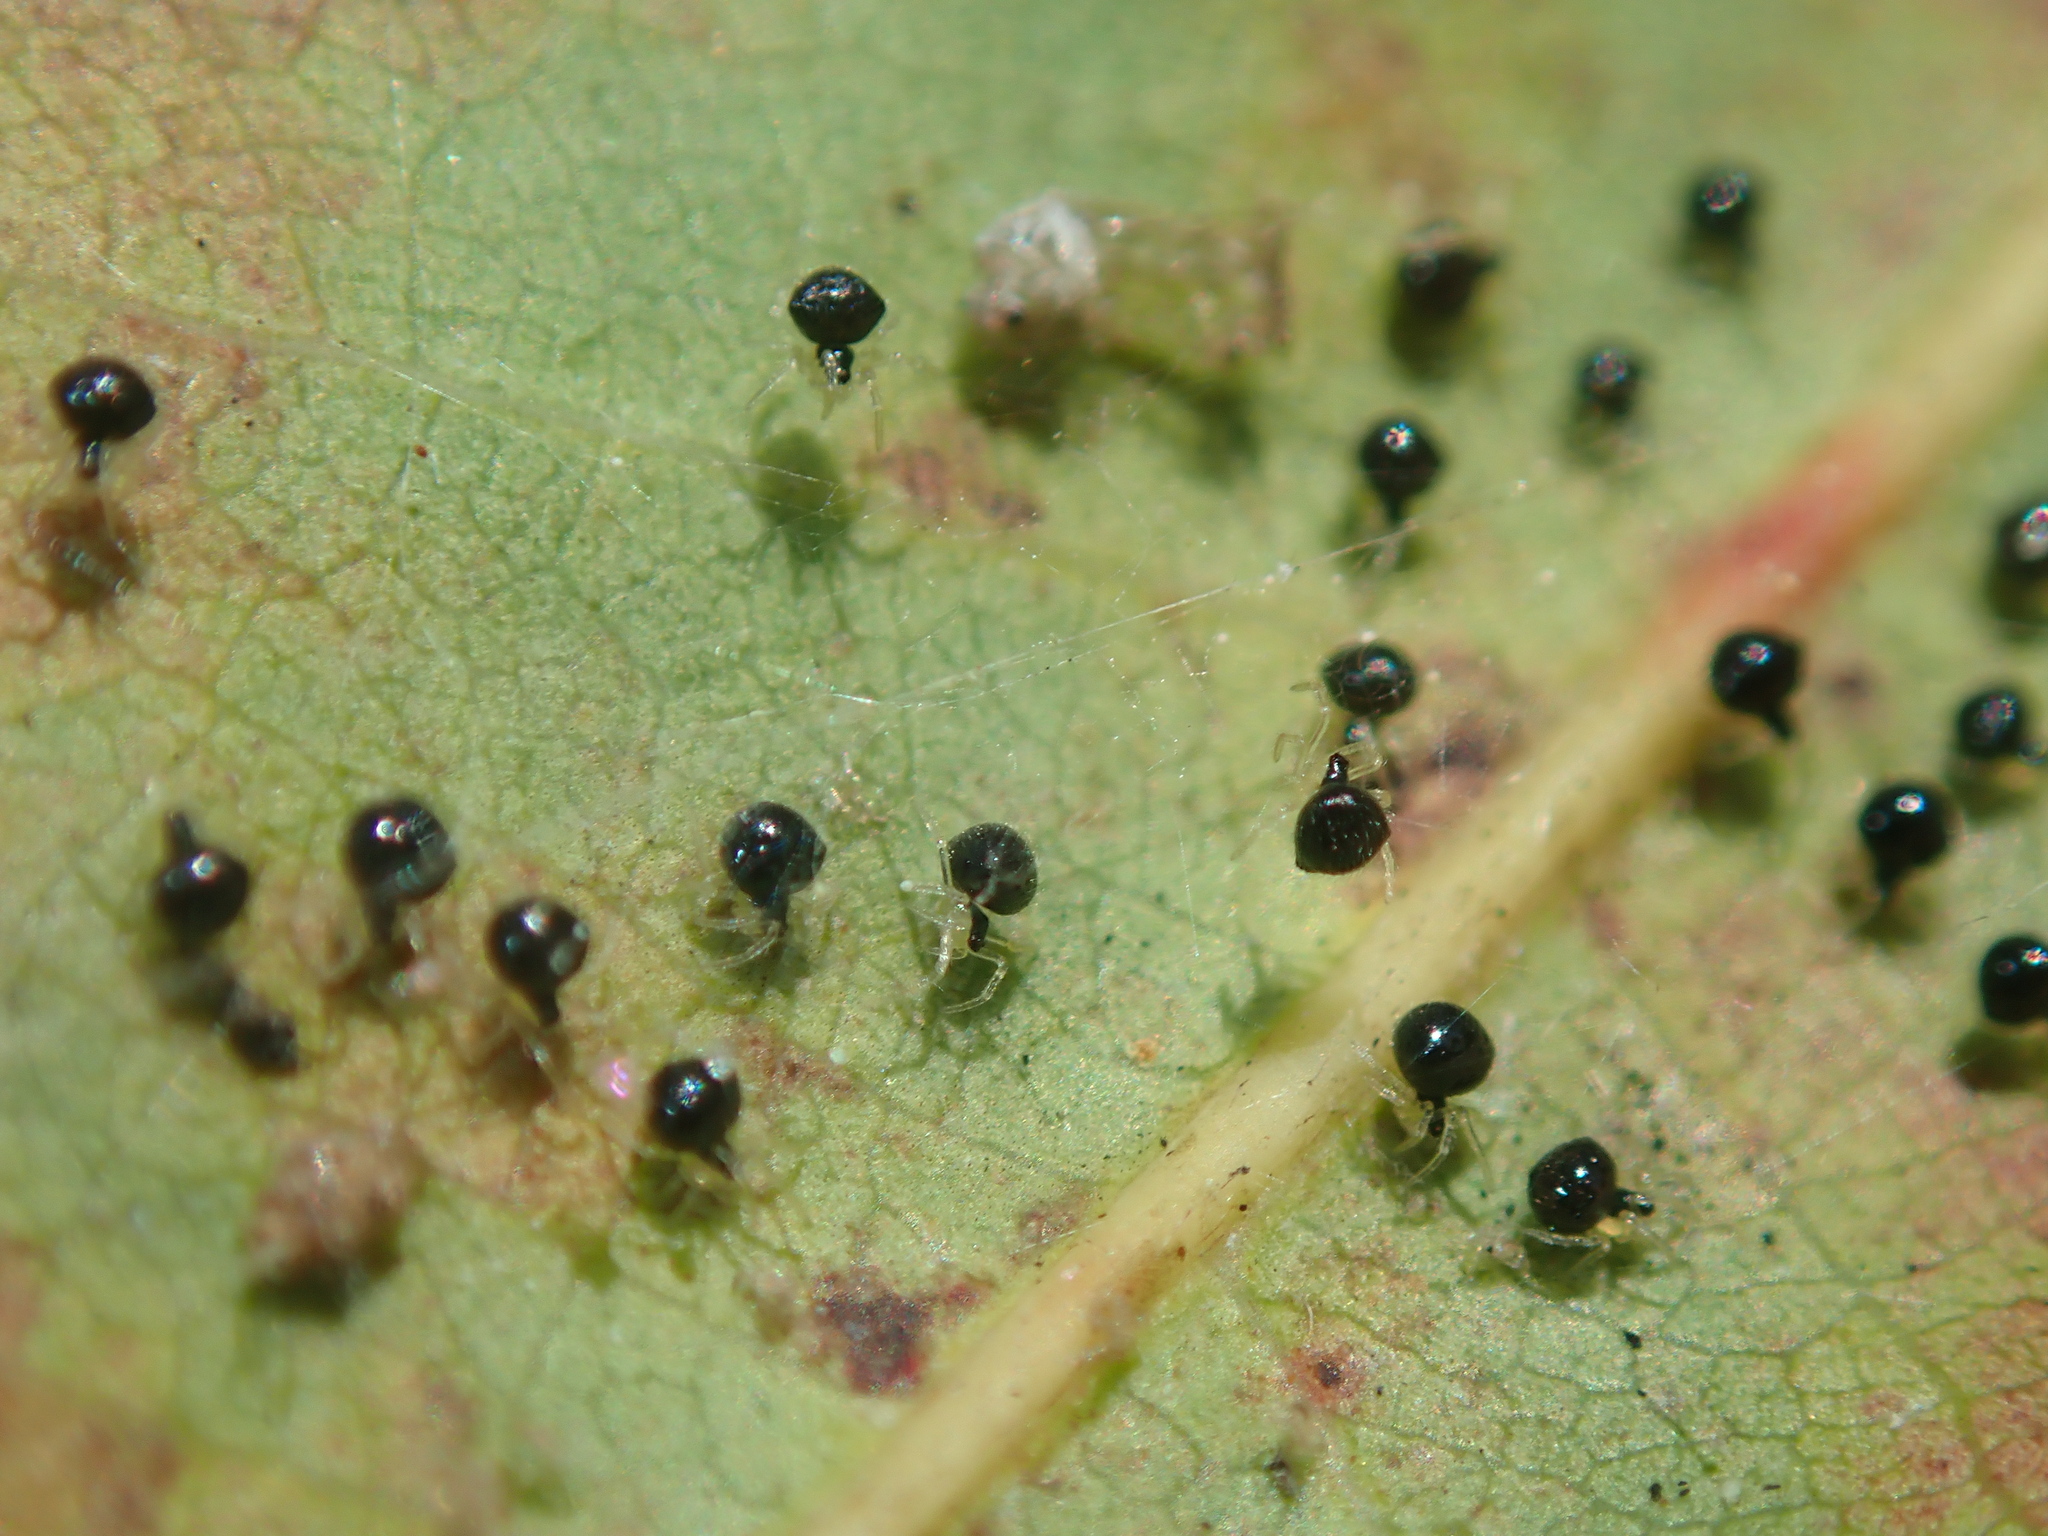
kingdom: Animalia
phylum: Arthropoda
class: Arachnida
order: Araneae
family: Theridiidae
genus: Theridula
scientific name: Theridula gonygaster
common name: Cobweb spiders
